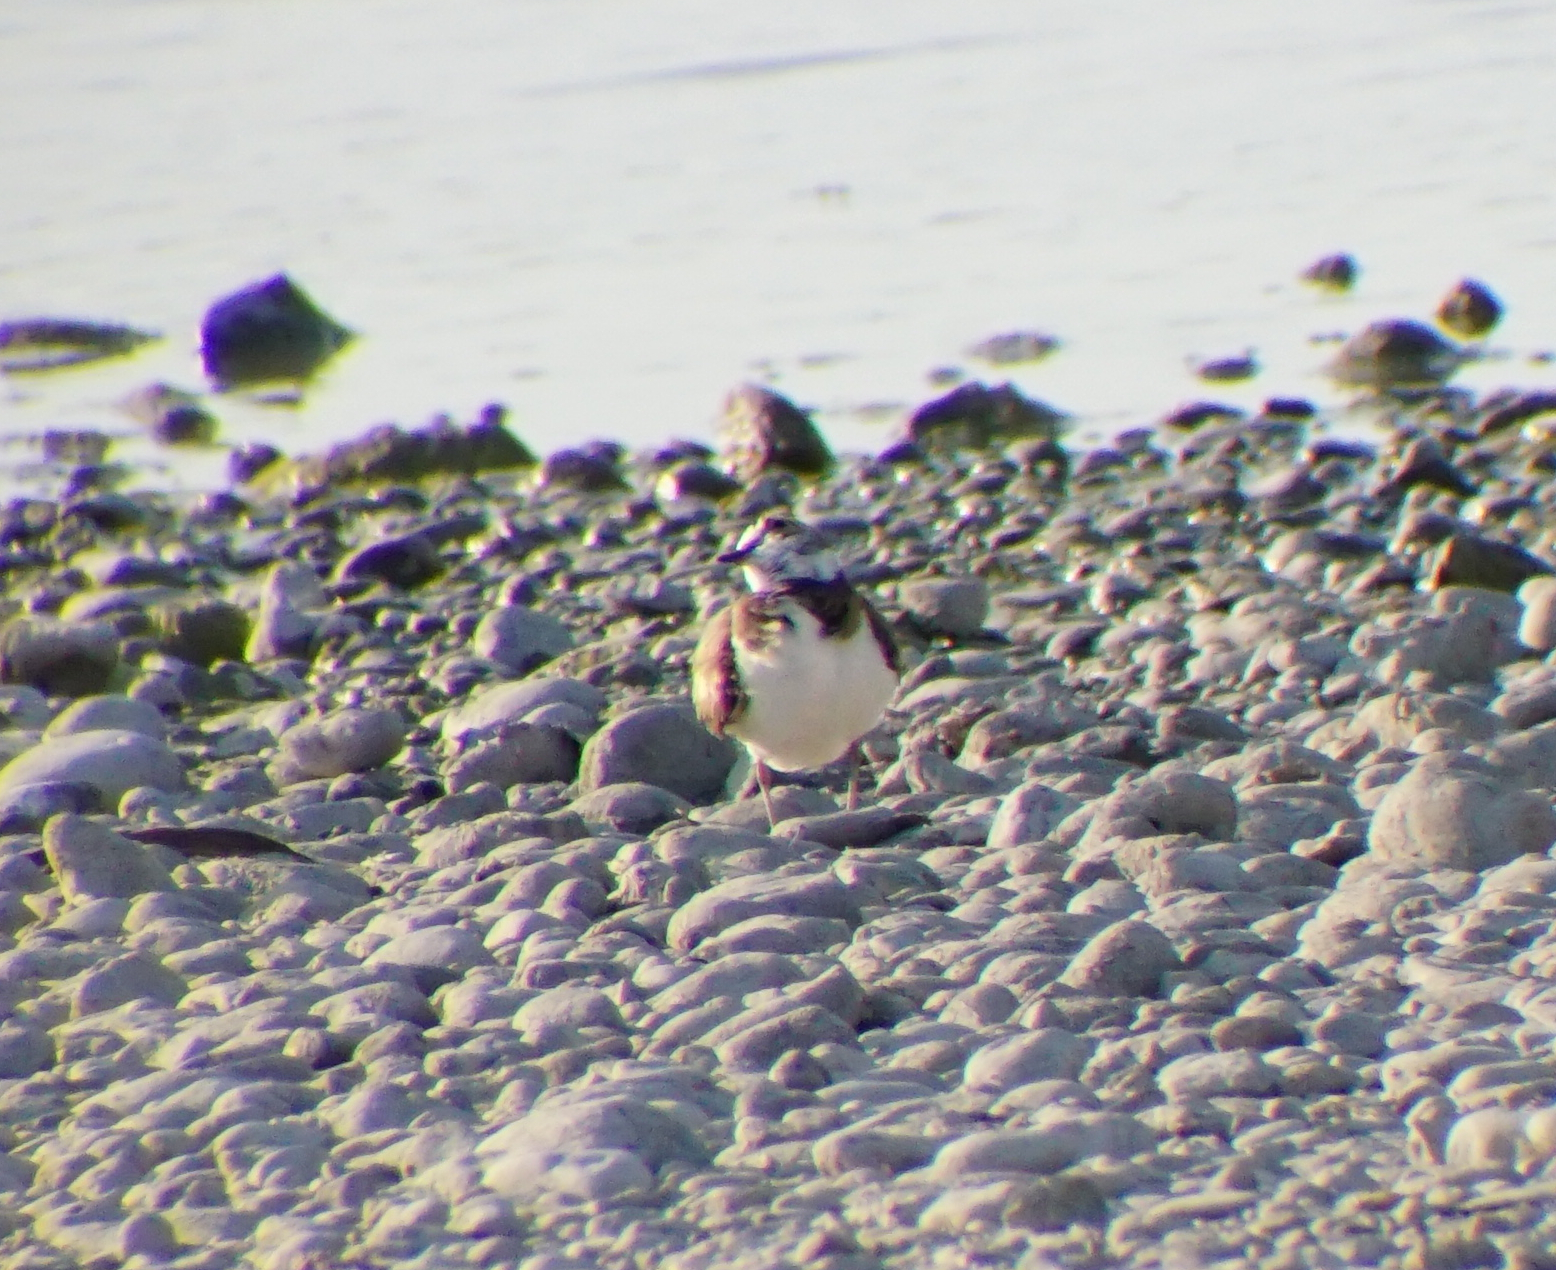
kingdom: Animalia
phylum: Chordata
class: Aves
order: Charadriiformes
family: Charadriidae
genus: Charadrius
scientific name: Charadrius dubius
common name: Little ringed plover
